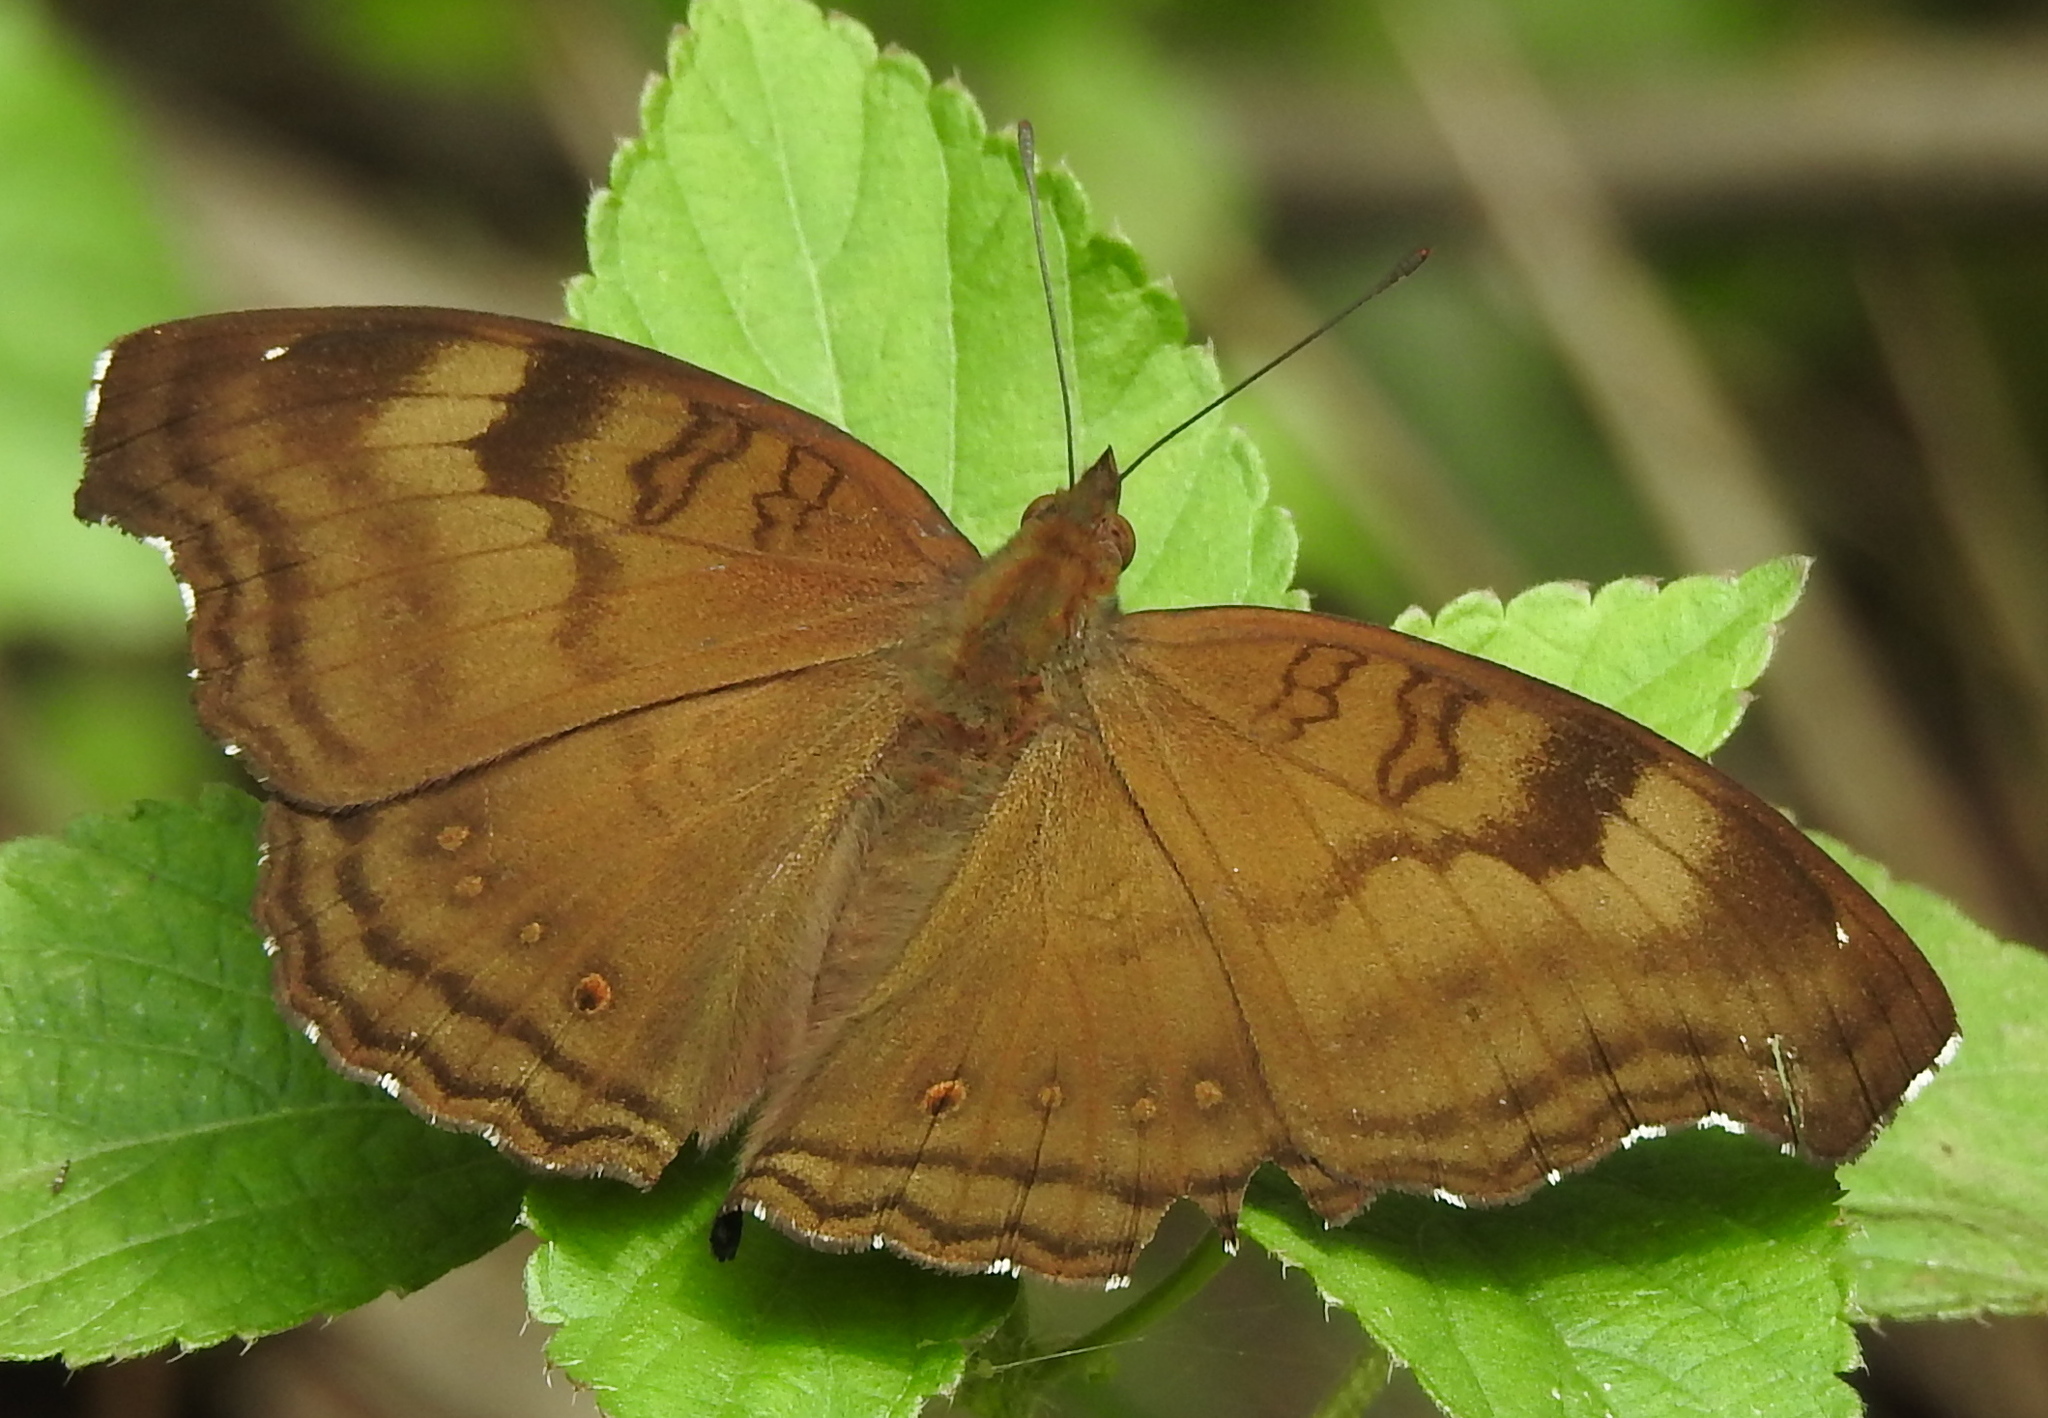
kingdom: Animalia
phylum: Arthropoda
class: Insecta
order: Lepidoptera
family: Nymphalidae
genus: Junonia
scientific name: Junonia iphita
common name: Chocolate pansy
